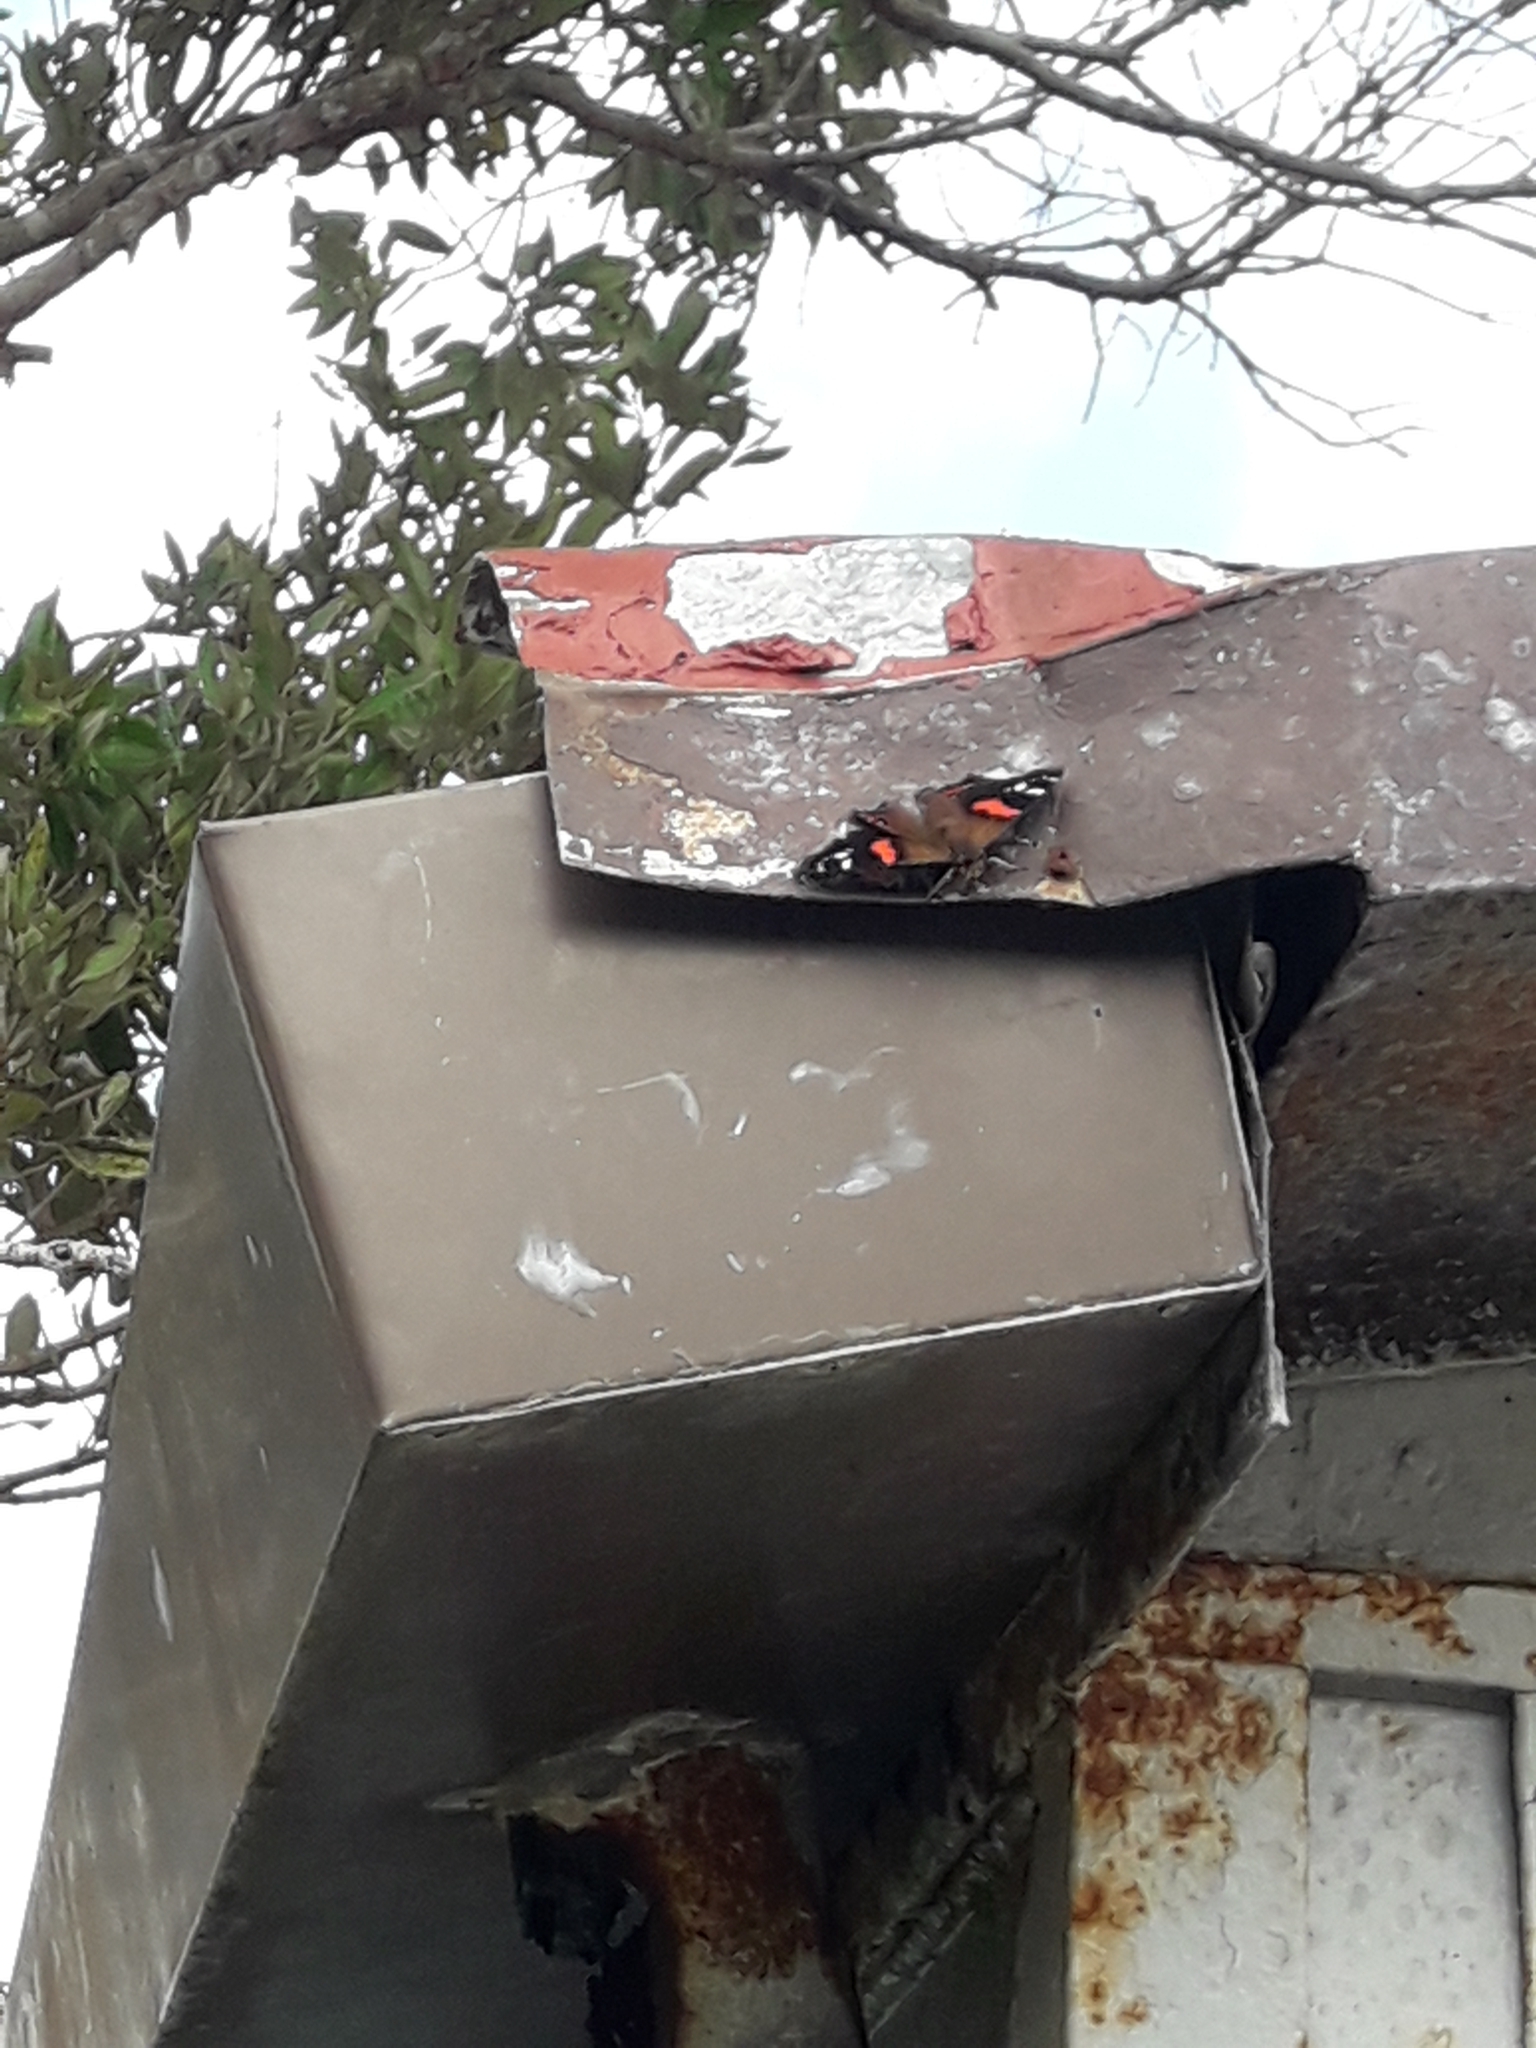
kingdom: Animalia
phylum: Arthropoda
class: Insecta
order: Lepidoptera
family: Nymphalidae
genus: Vanessa
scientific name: Vanessa gonerilla
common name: New zealand red admiral
